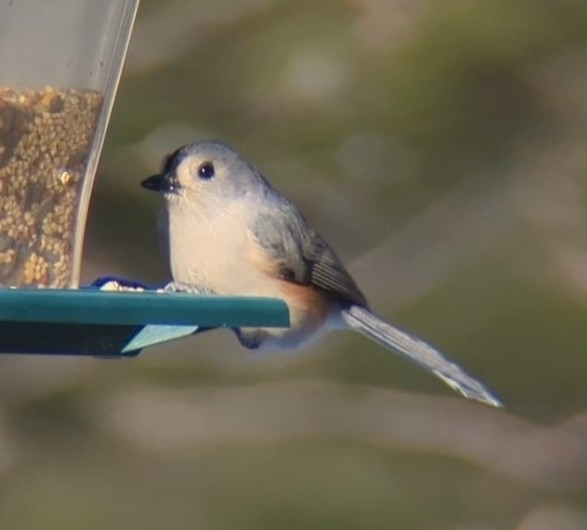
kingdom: Animalia
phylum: Chordata
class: Aves
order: Passeriformes
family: Paridae
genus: Baeolophus
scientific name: Baeolophus bicolor
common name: Tufted titmouse
